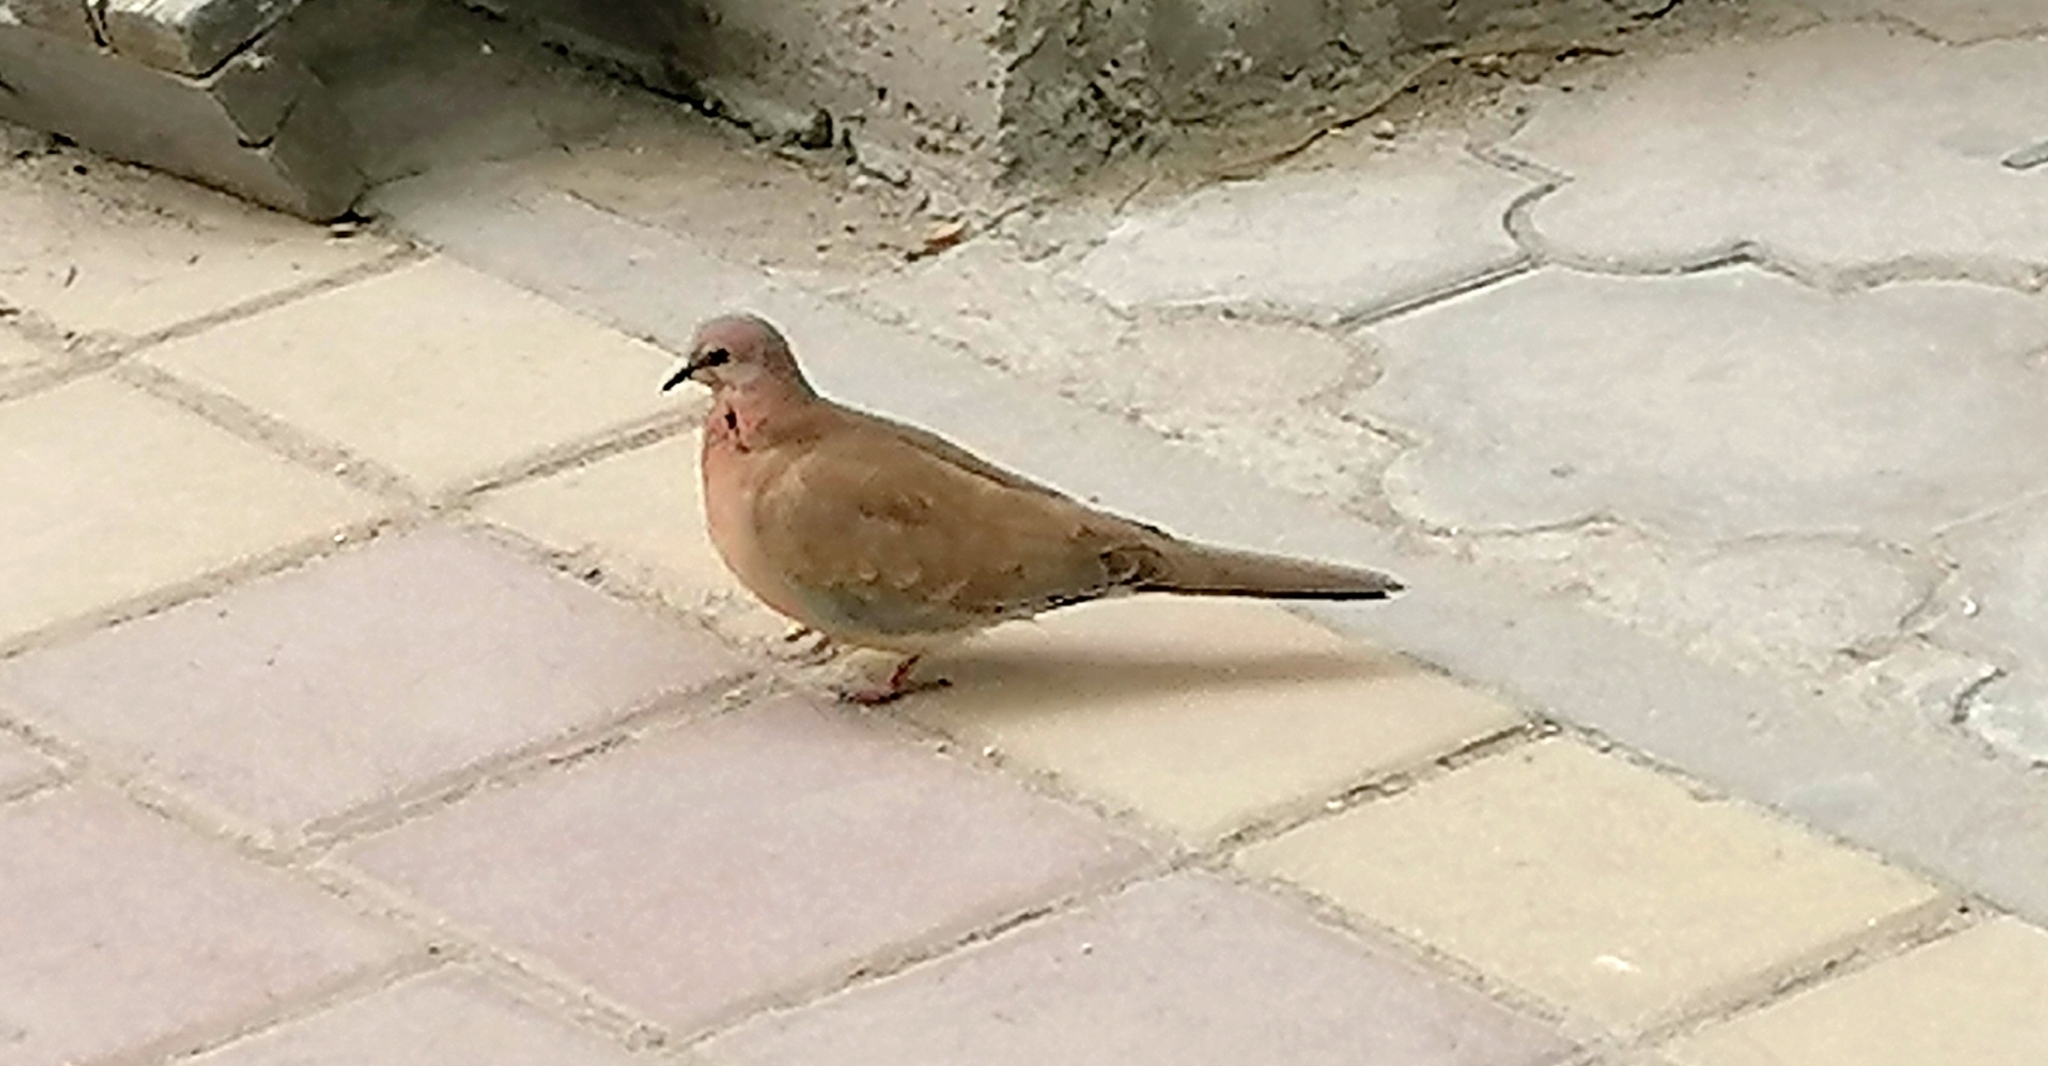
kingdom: Animalia
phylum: Chordata
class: Aves
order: Columbiformes
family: Columbidae
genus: Spilopelia
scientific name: Spilopelia senegalensis
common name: Laughing dove
